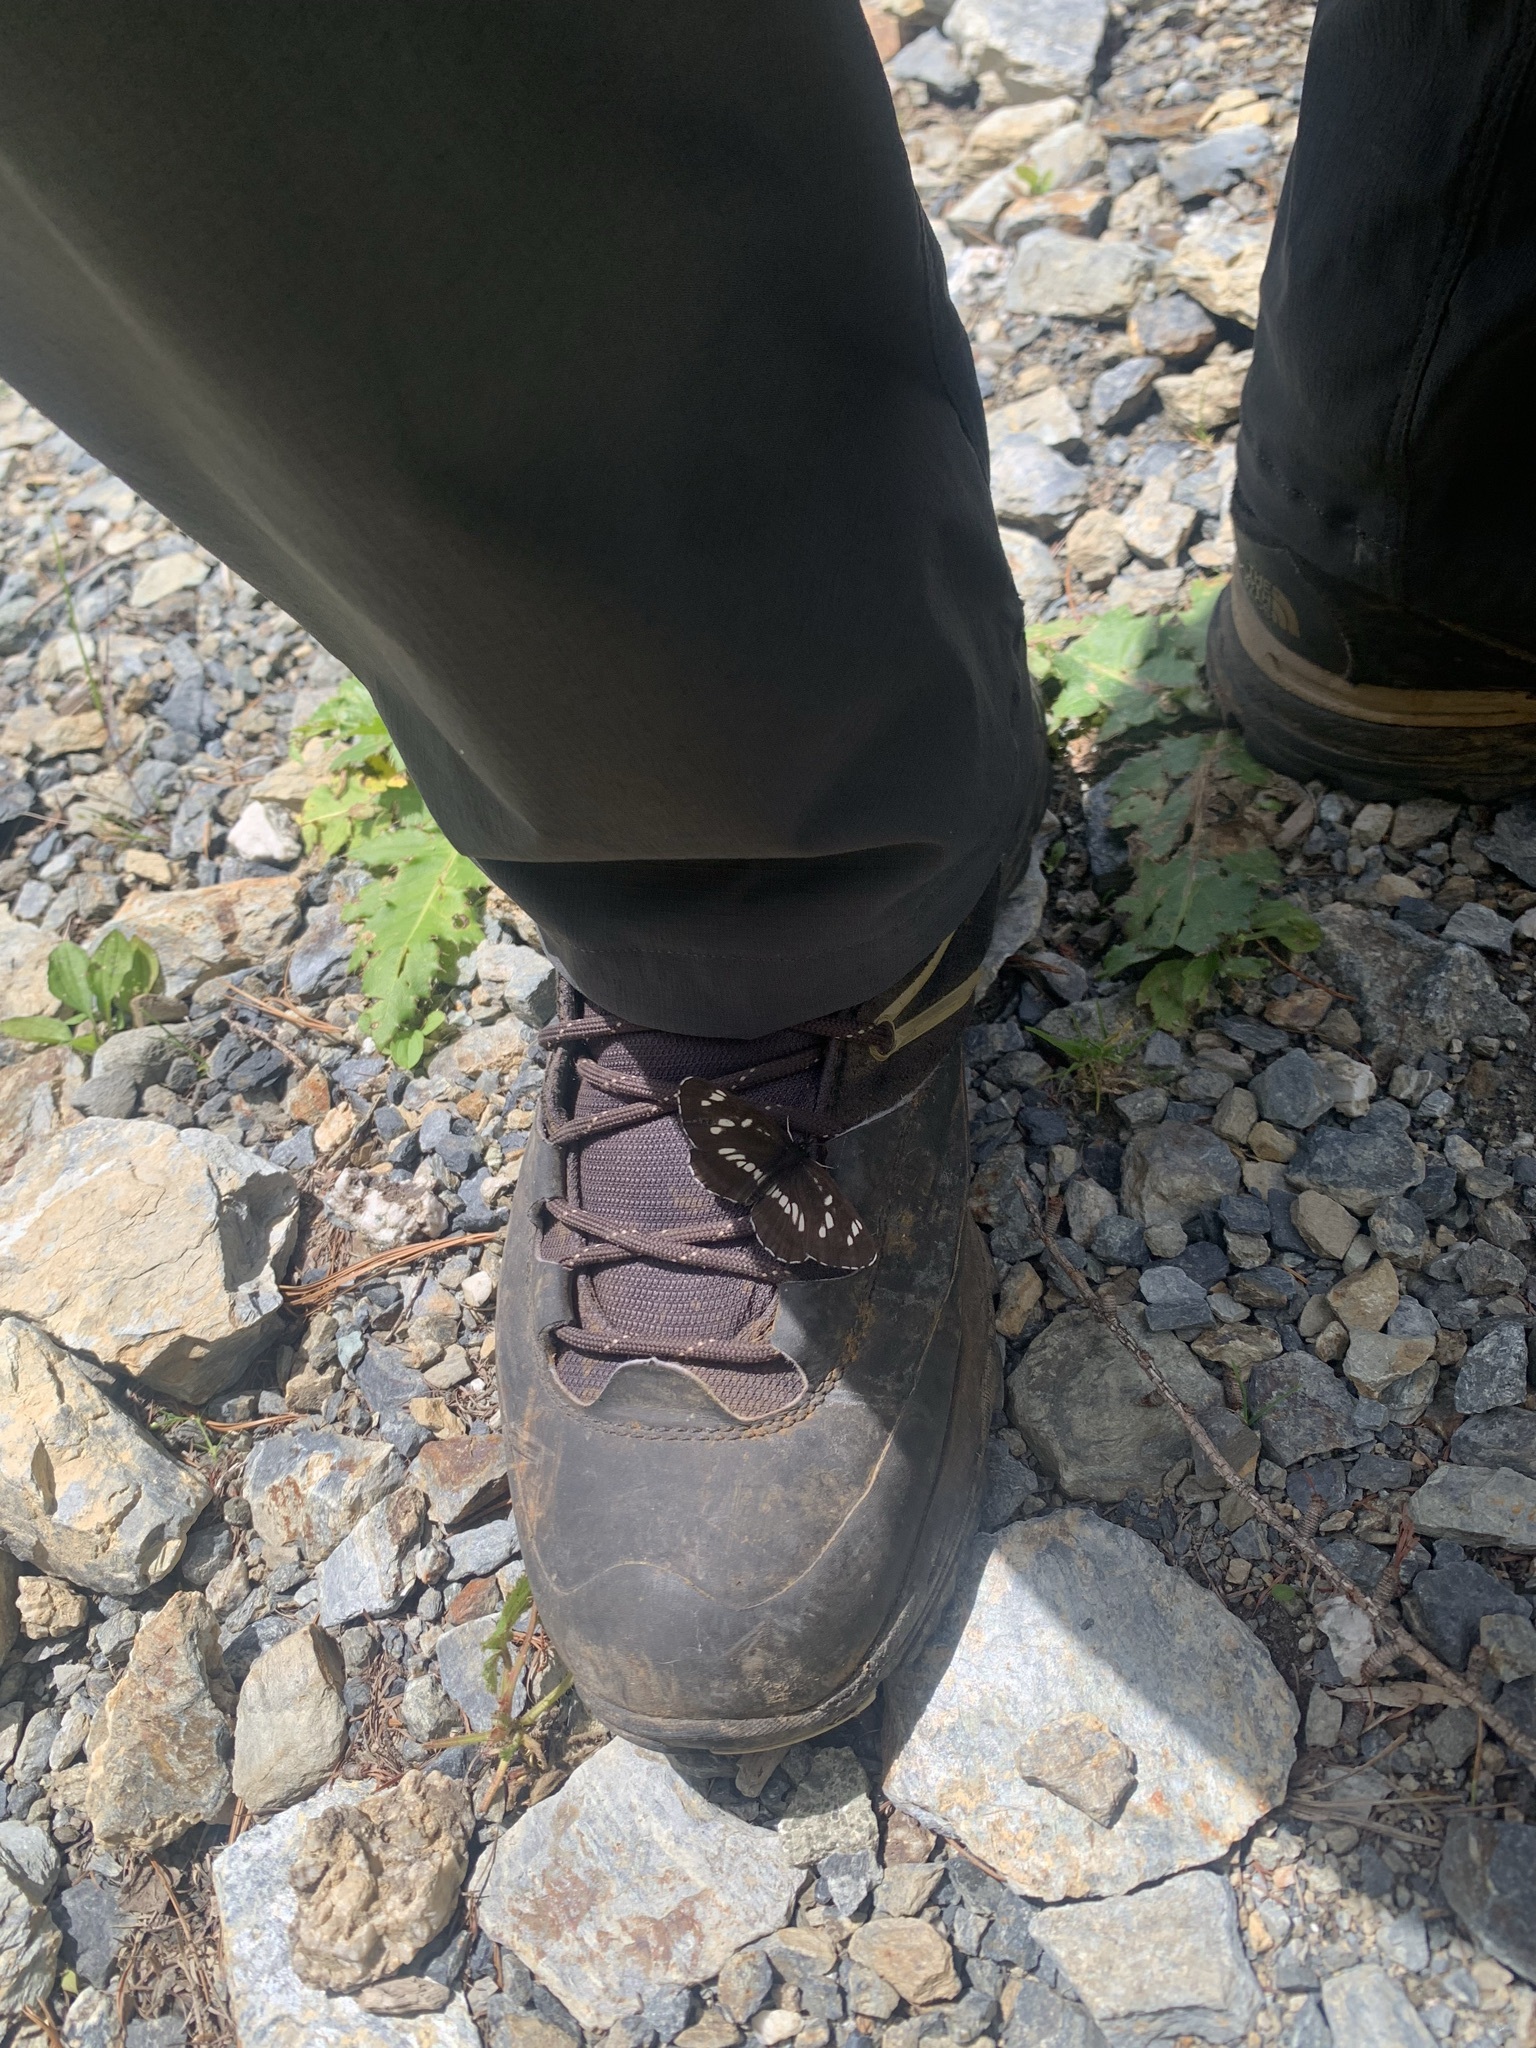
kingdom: Animalia
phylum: Arthropoda
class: Insecta
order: Lepidoptera
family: Nymphalidae
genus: Neptis
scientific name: Neptis rivularis
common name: Hungarian glider
